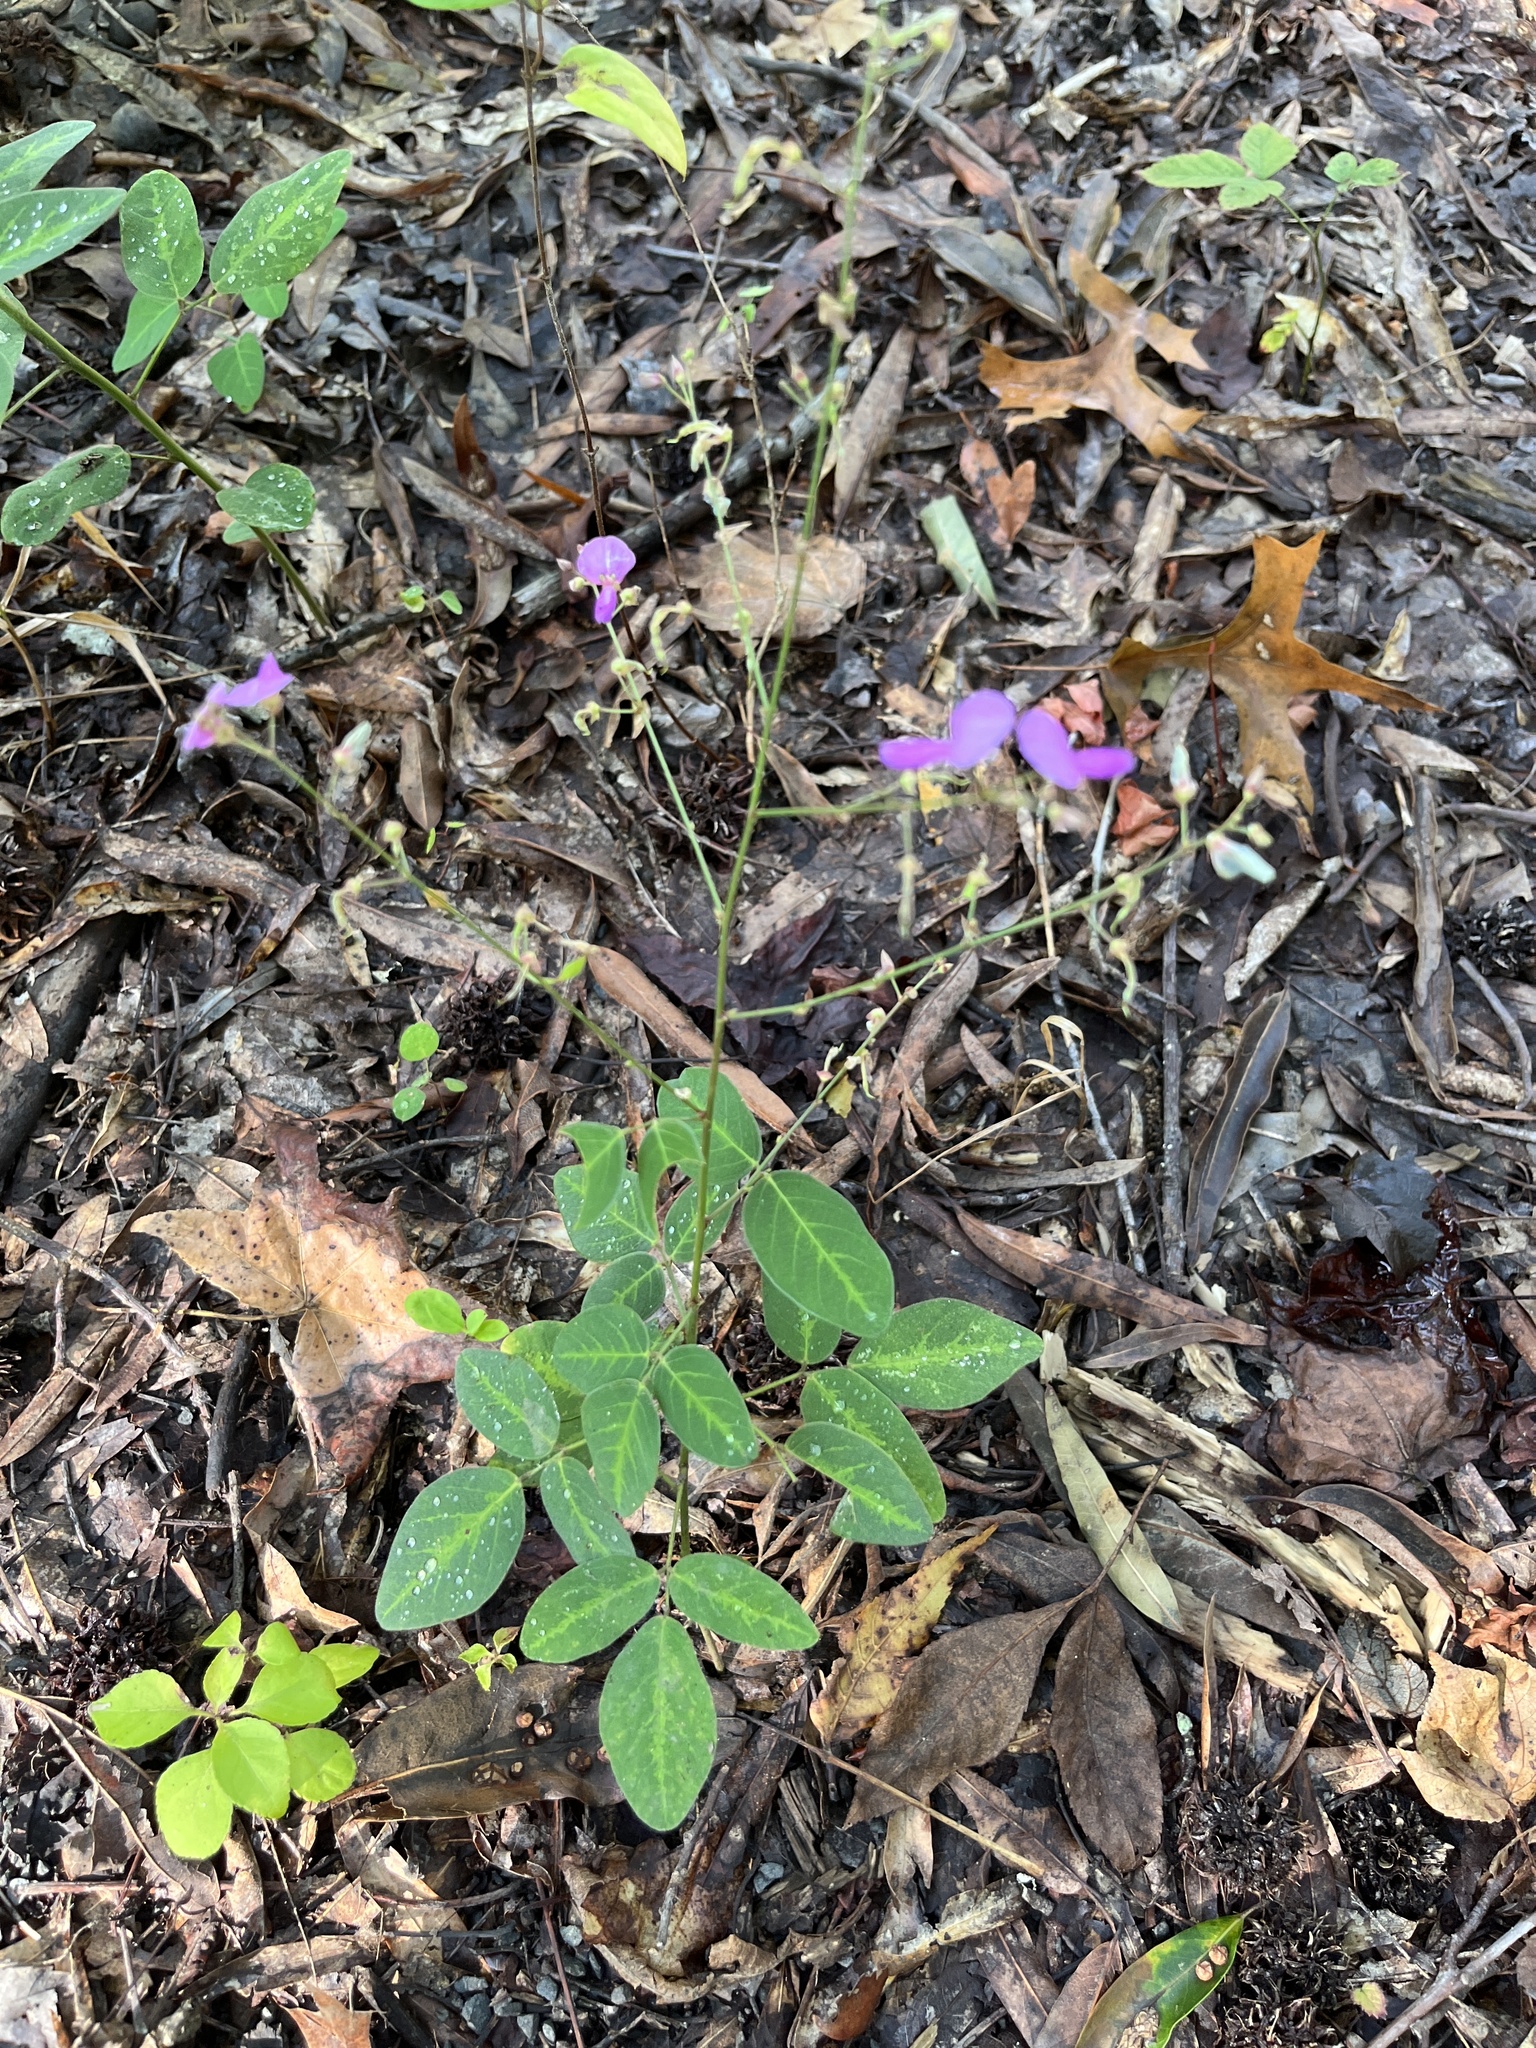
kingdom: Plantae
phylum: Tracheophyta
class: Magnoliopsida
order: Fabales
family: Fabaceae
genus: Desmodium
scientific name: Desmodium perplexum
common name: Perplexed tick trefoil
